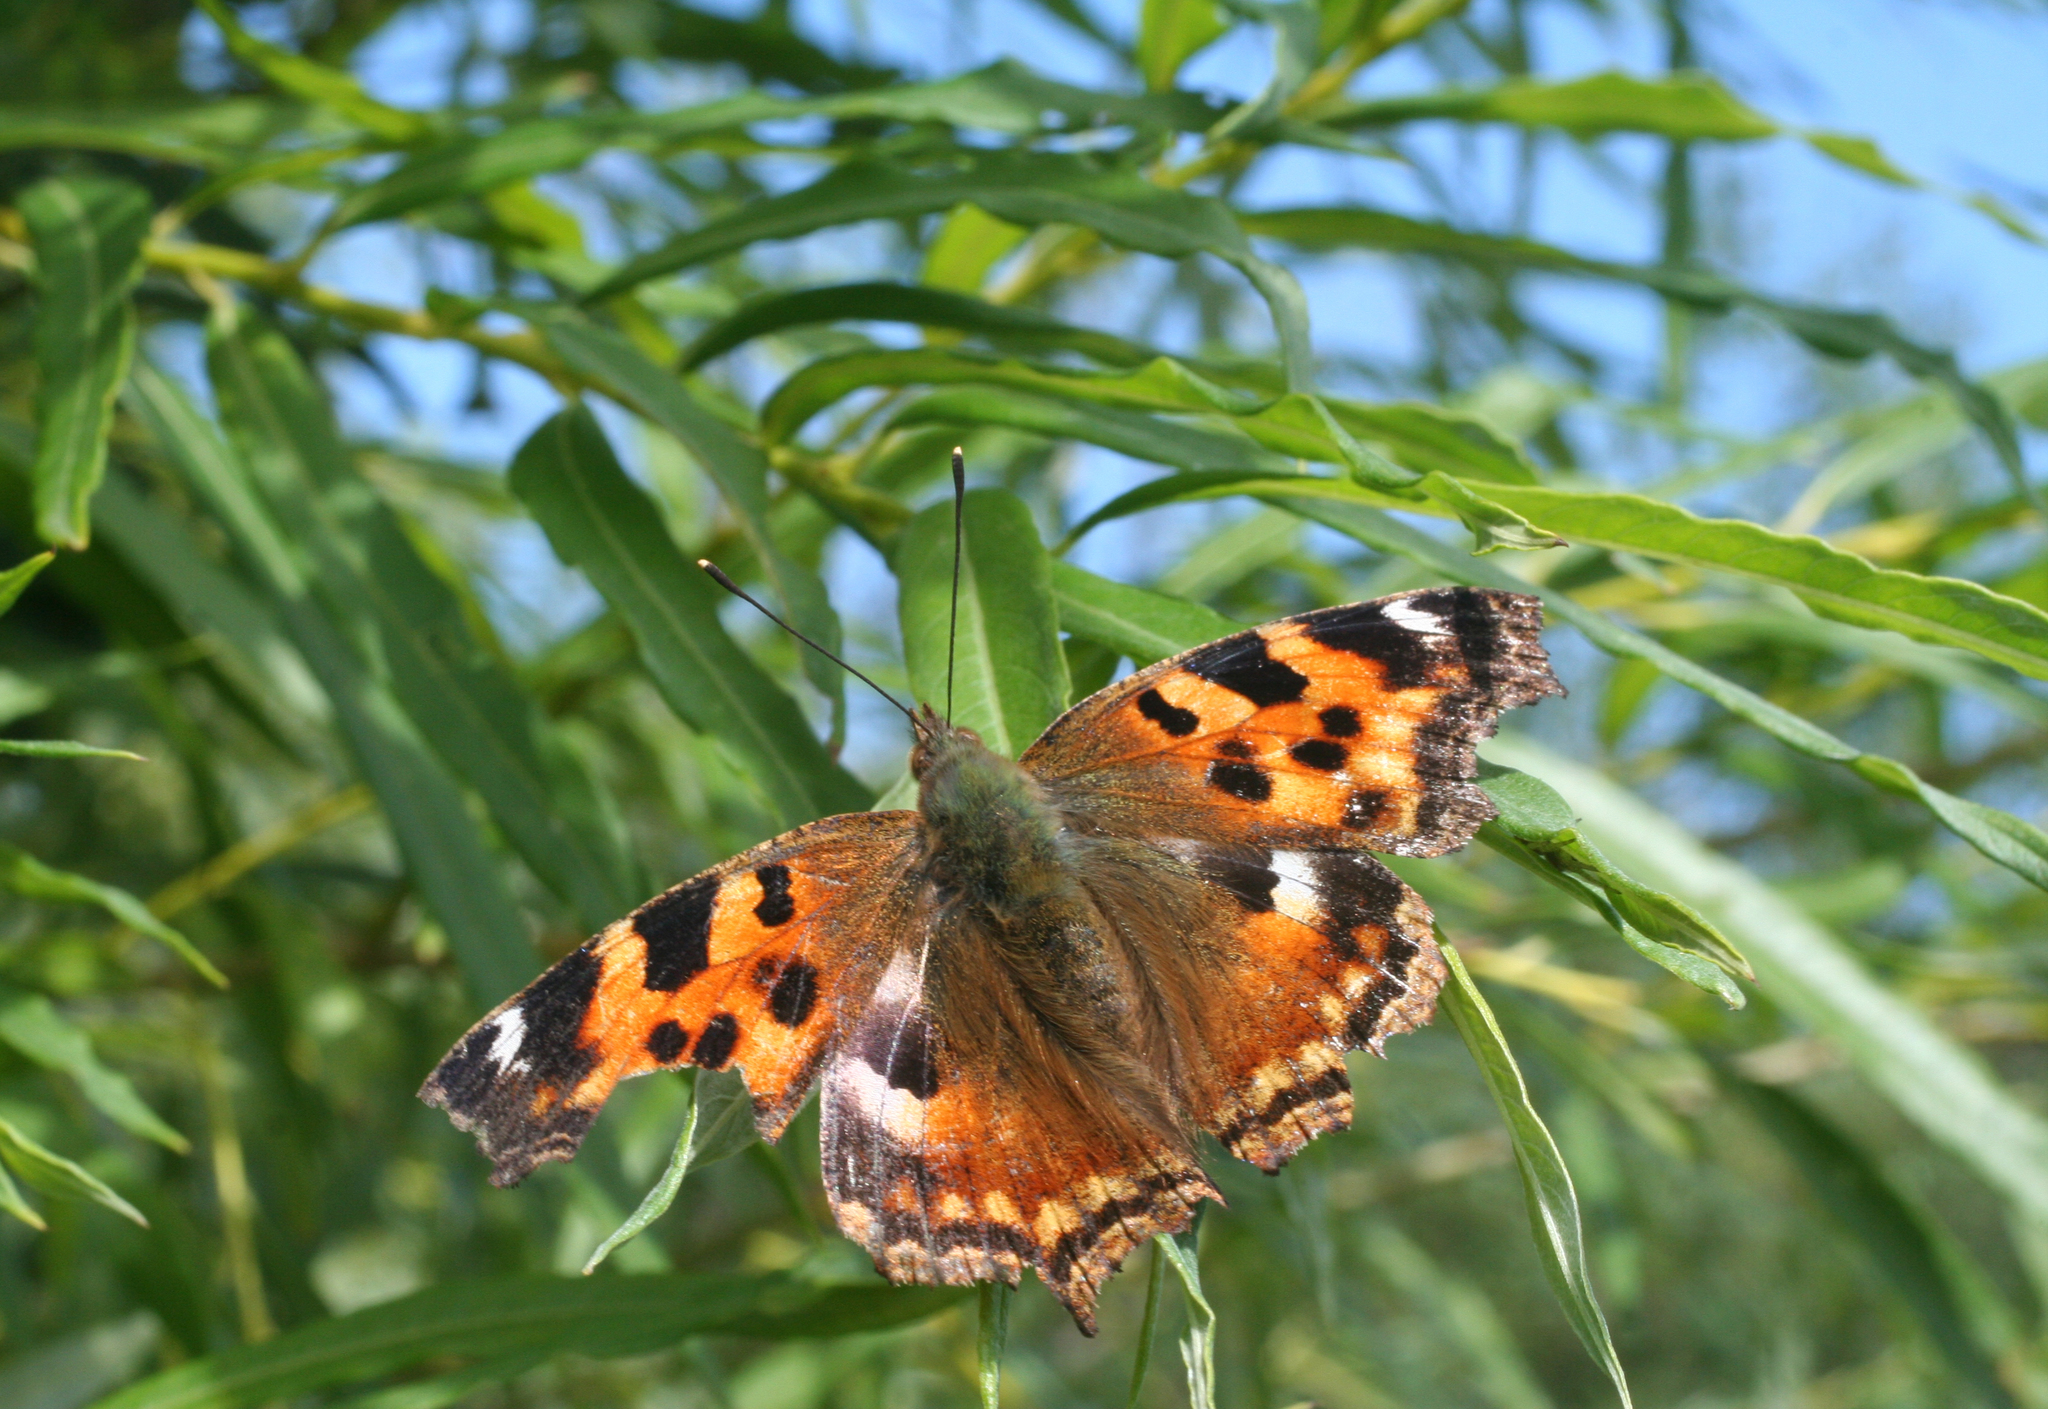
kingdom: Animalia
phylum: Arthropoda
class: Insecta
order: Lepidoptera
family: Nymphalidae
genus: Polygonia
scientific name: Polygonia vaualbum
